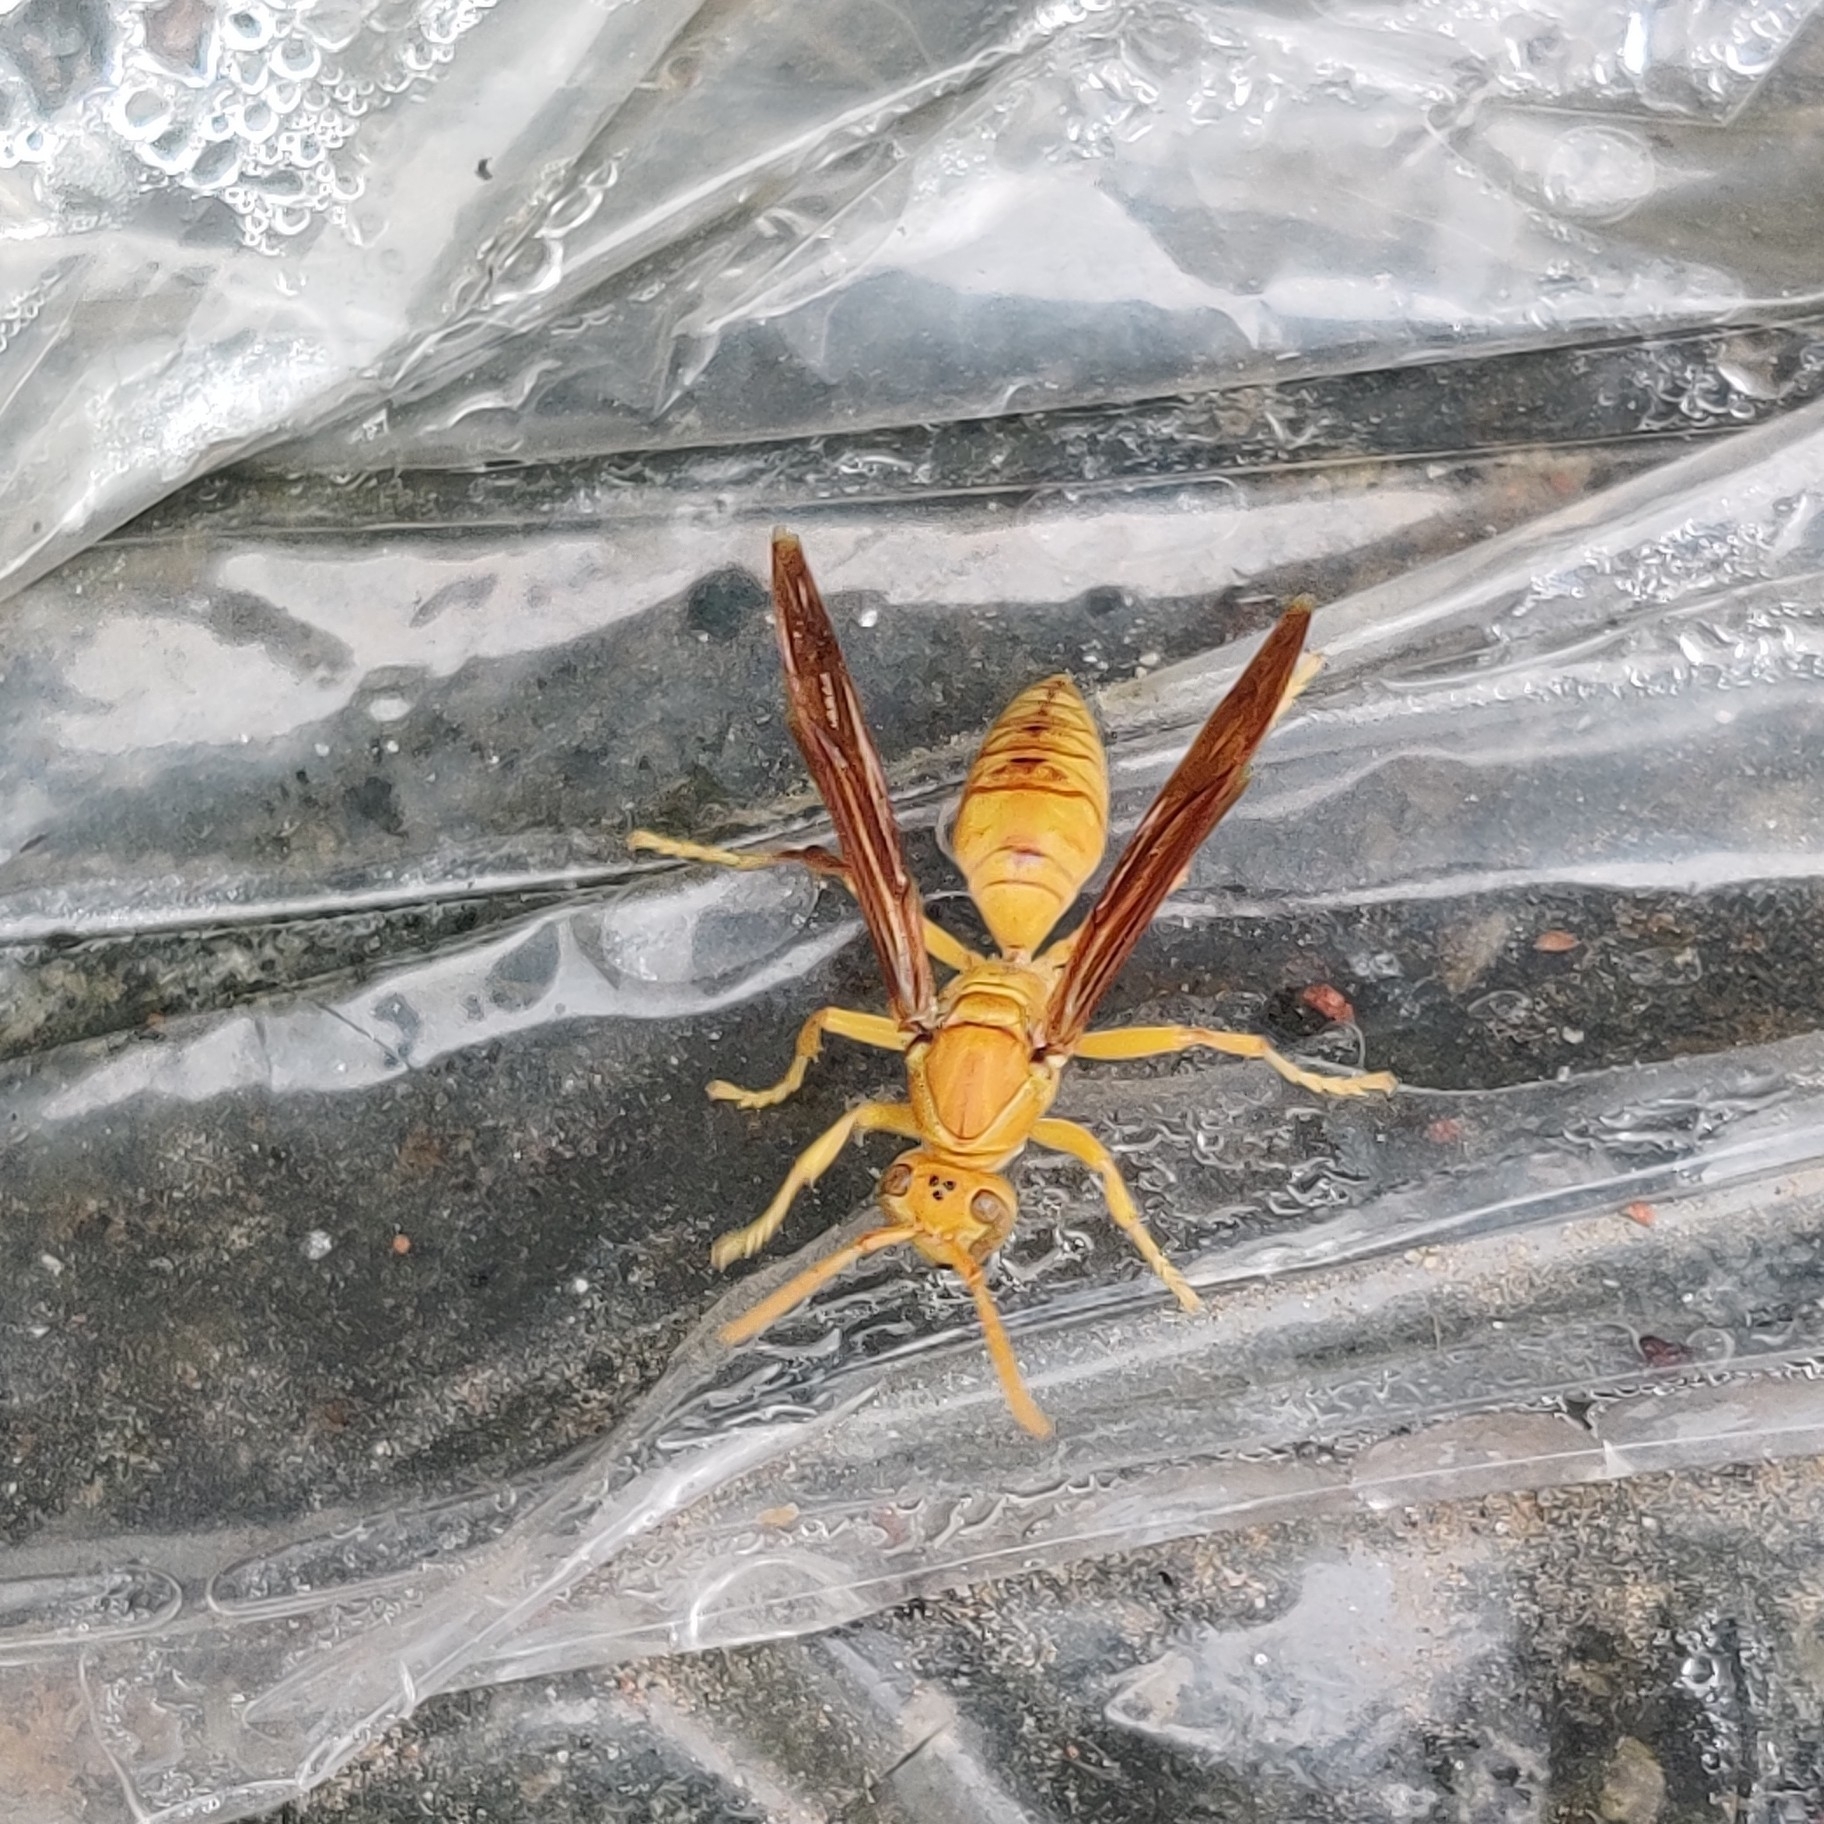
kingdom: Animalia
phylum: Arthropoda
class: Insecta
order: Hymenoptera
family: Eumenidae
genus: Polistes
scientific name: Polistes wattii
